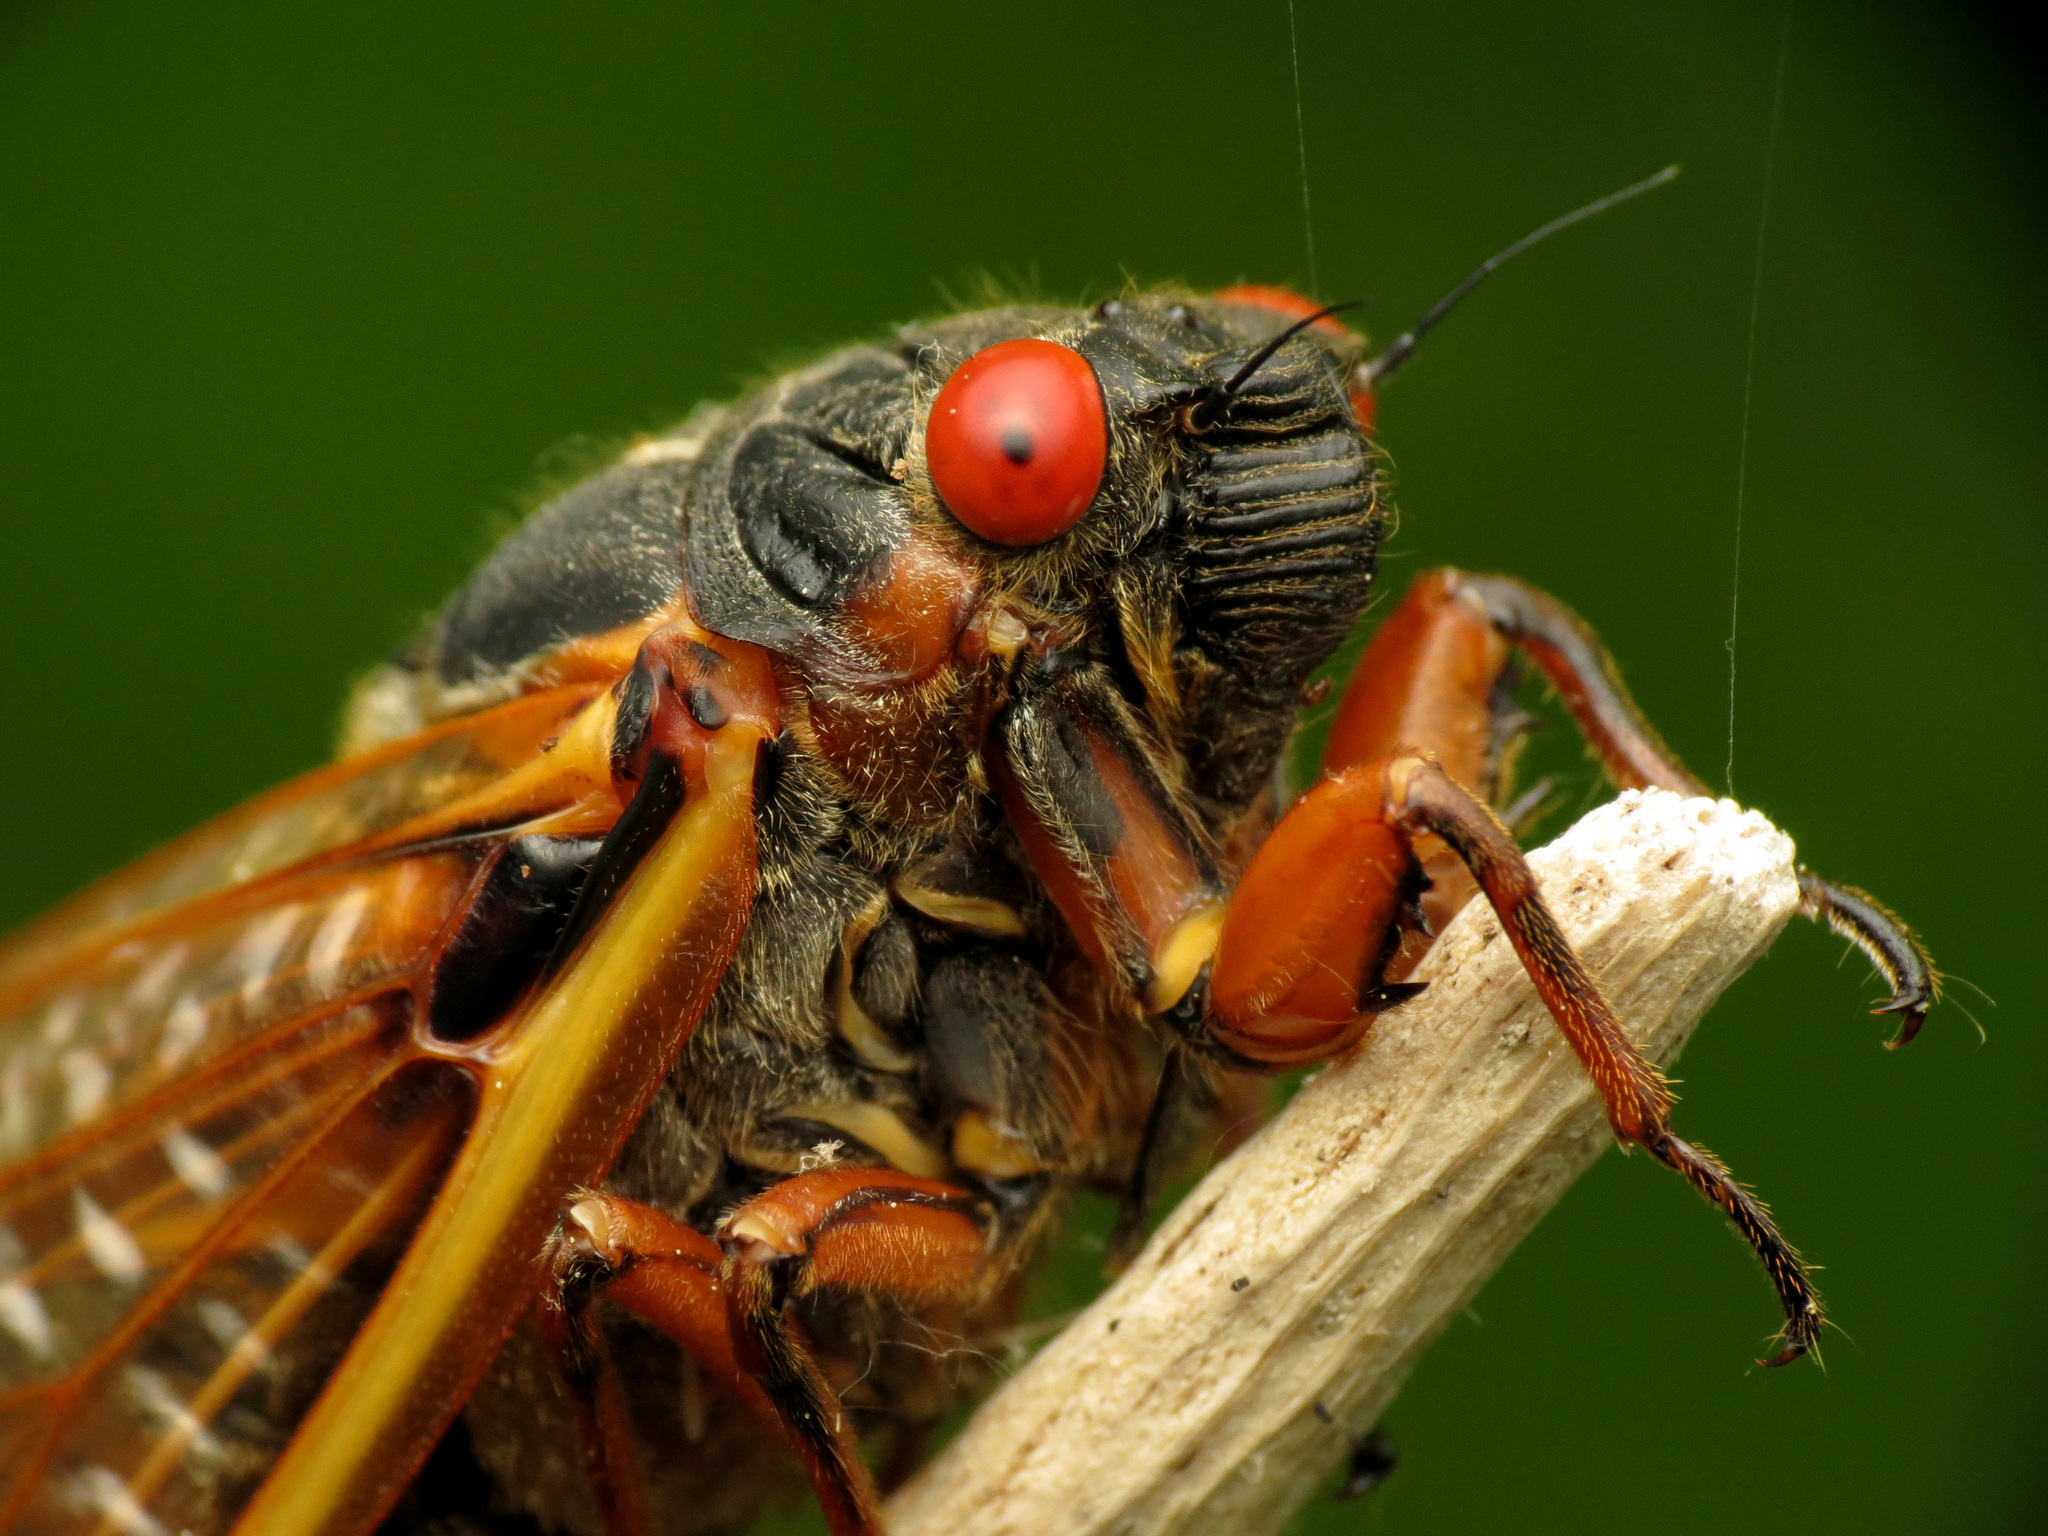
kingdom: Animalia
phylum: Arthropoda
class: Insecta
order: Hemiptera
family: Cicadidae
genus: Magicicada
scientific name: Magicicada septendecim
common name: Periodical cicada
